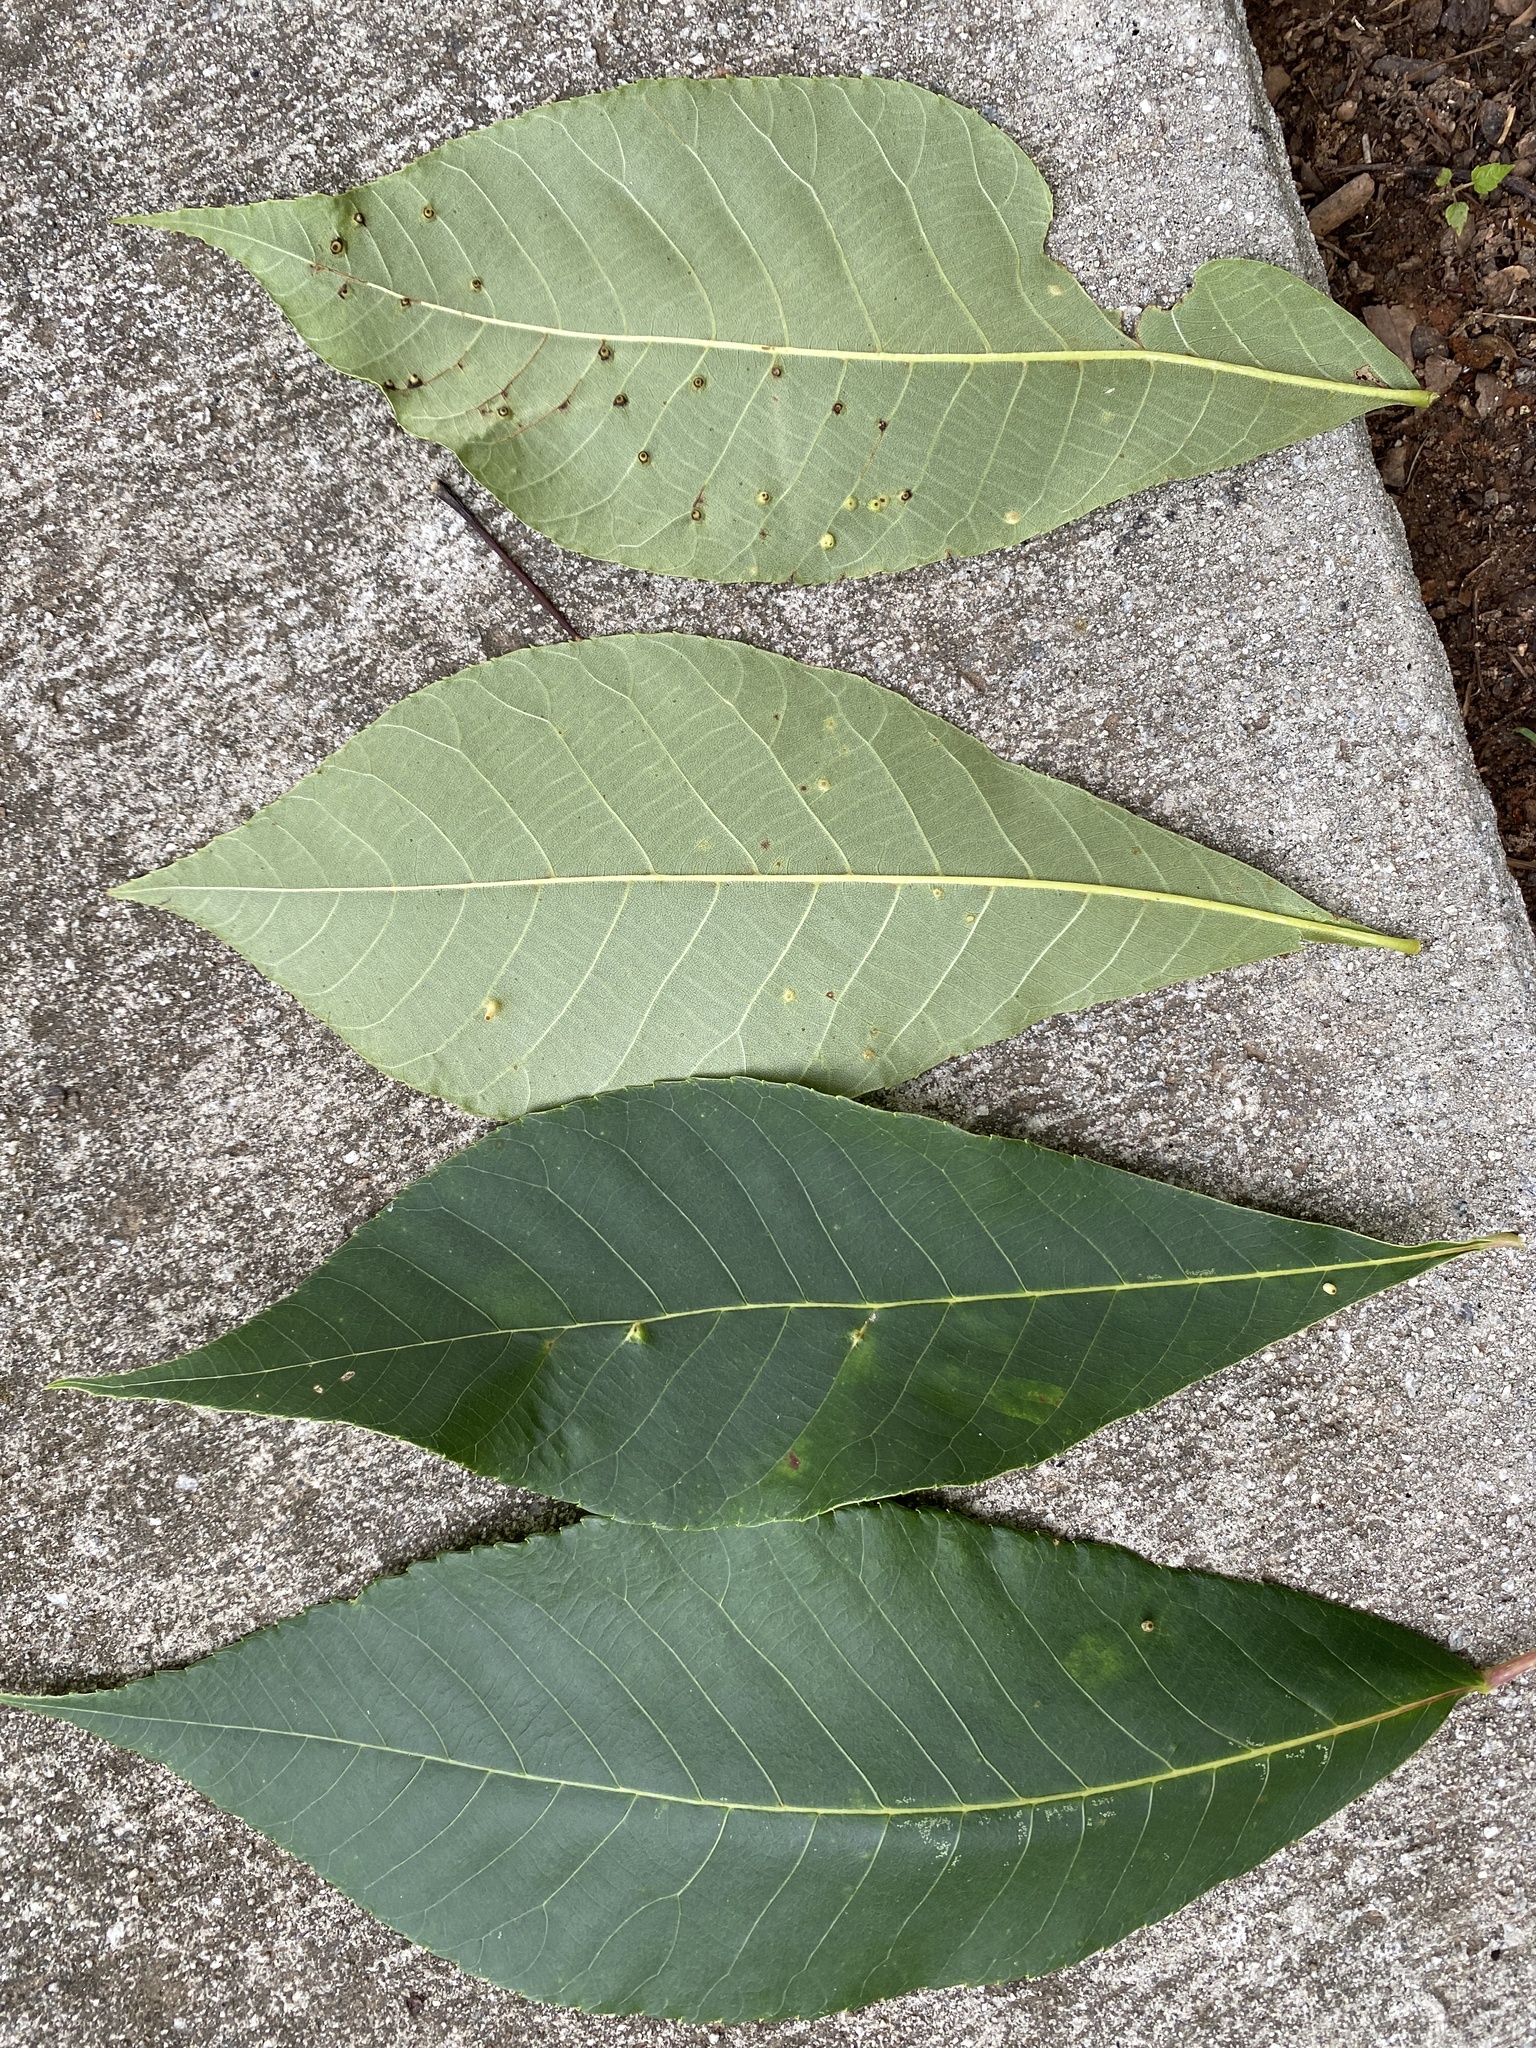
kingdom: Animalia
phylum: Arthropoda
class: Insecta
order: Diptera
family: Cecidomyiidae
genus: Caryomyia
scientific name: Caryomyia tubicola
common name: Hickory bullet gall midge
